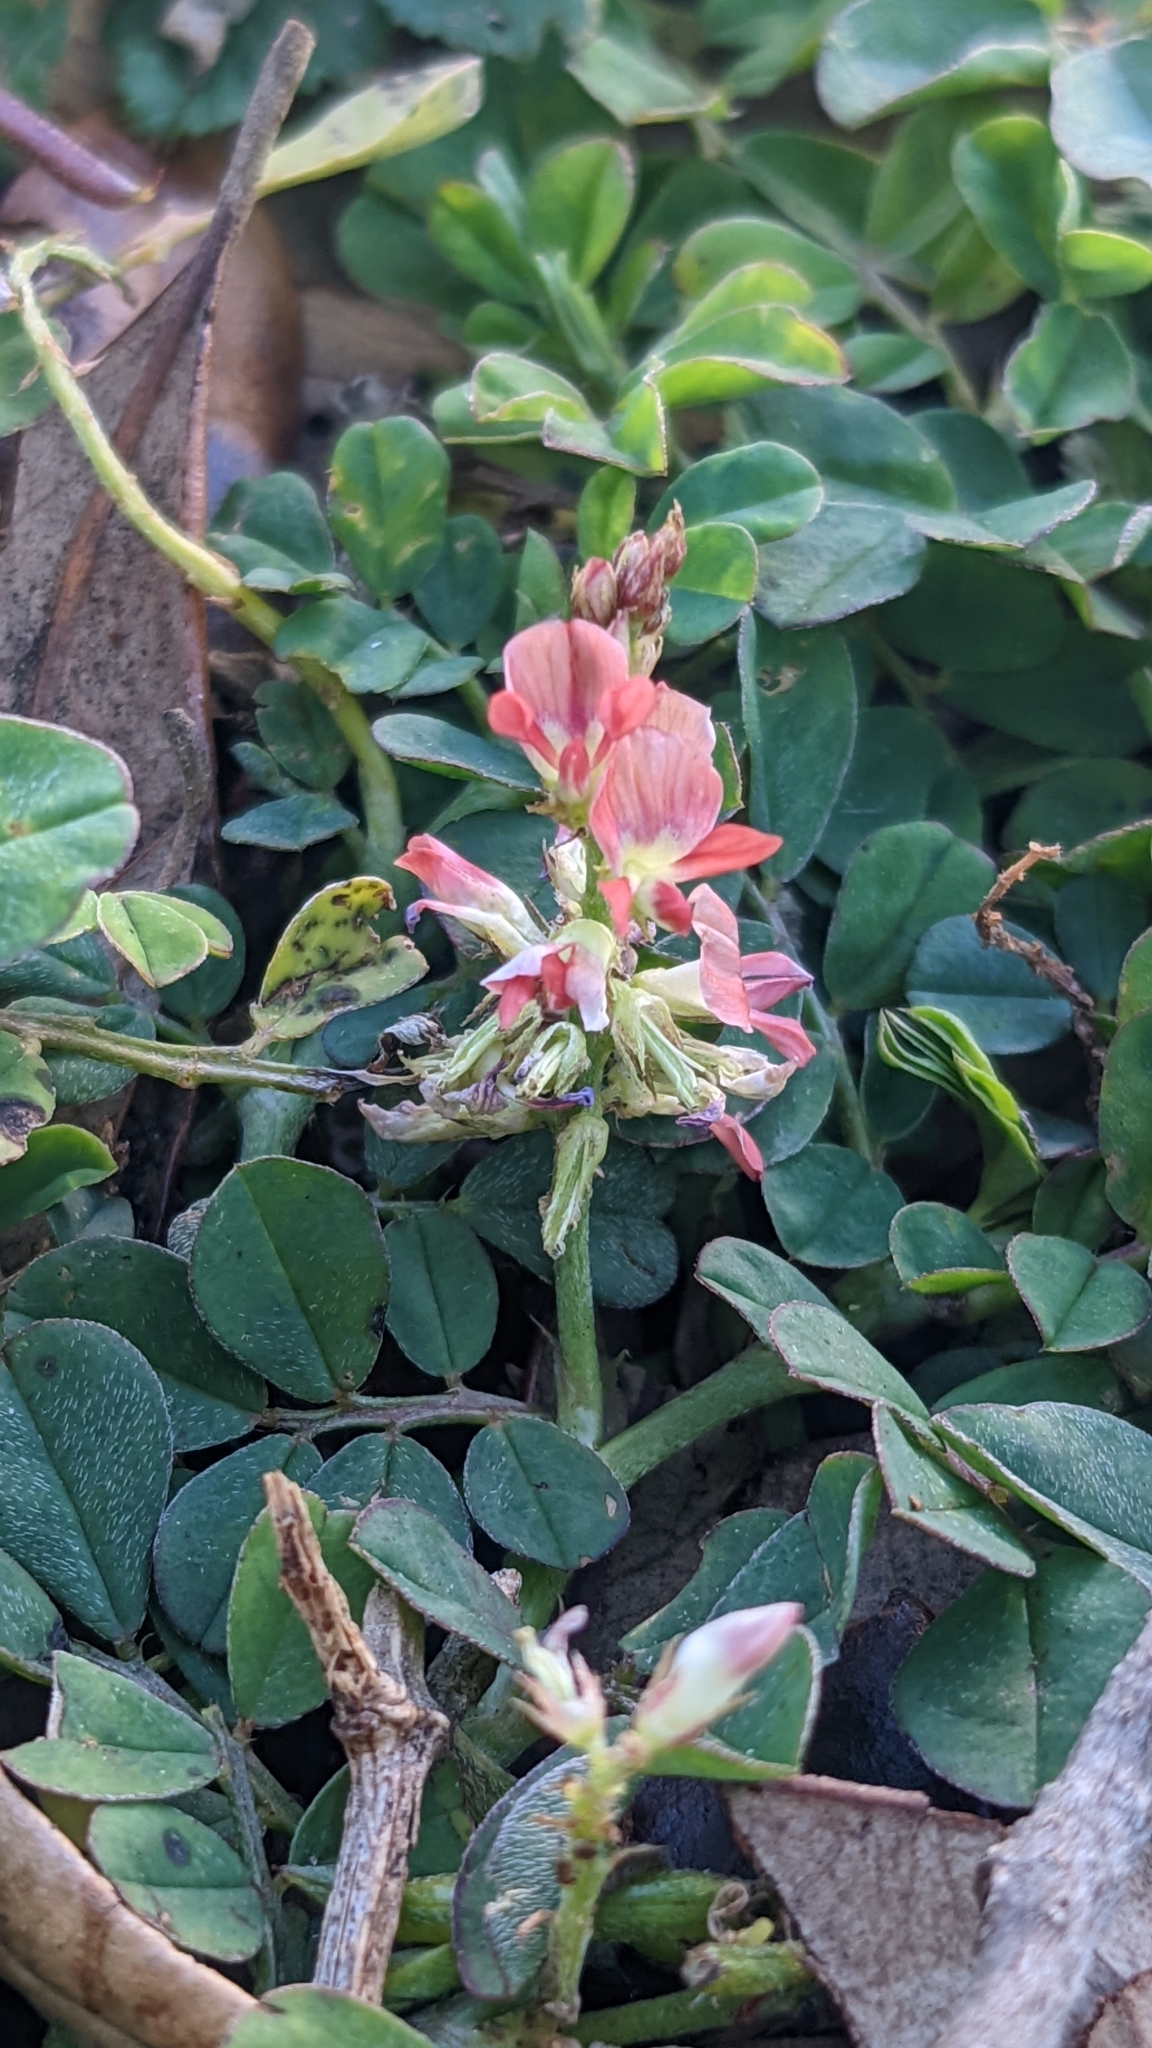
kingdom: Plantae
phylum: Tracheophyta
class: Magnoliopsida
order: Fabales
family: Fabaceae
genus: Indigofera
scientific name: Indigofera spicata
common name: Creeping indigo
